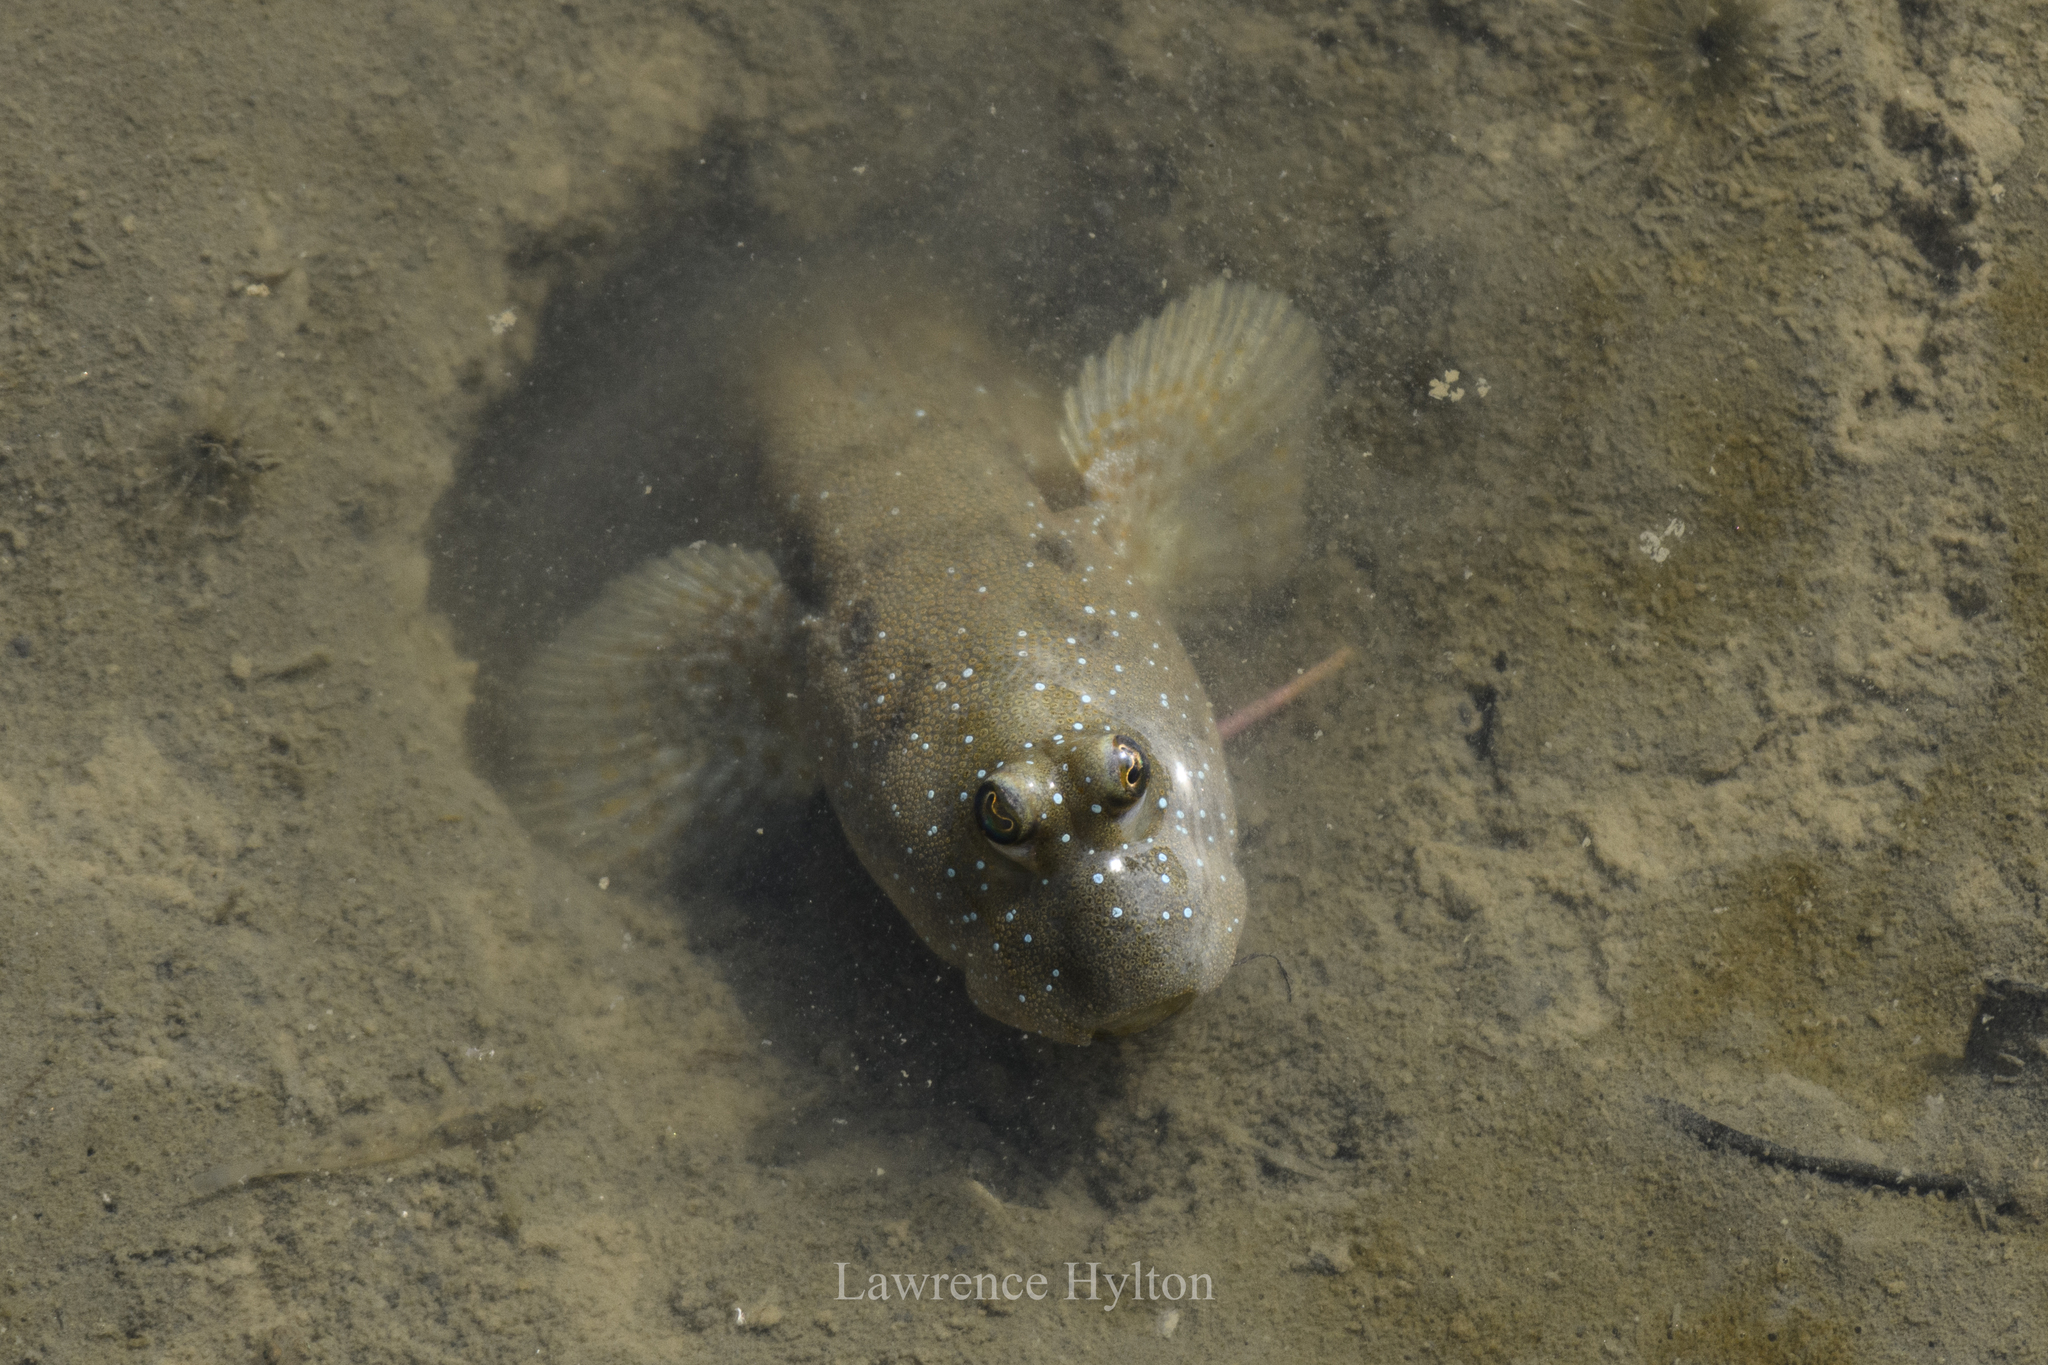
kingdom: Animalia
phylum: Chordata
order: Perciformes
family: Gobiidae
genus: Boleophthalmus
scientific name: Boleophthalmus pectinirostris
